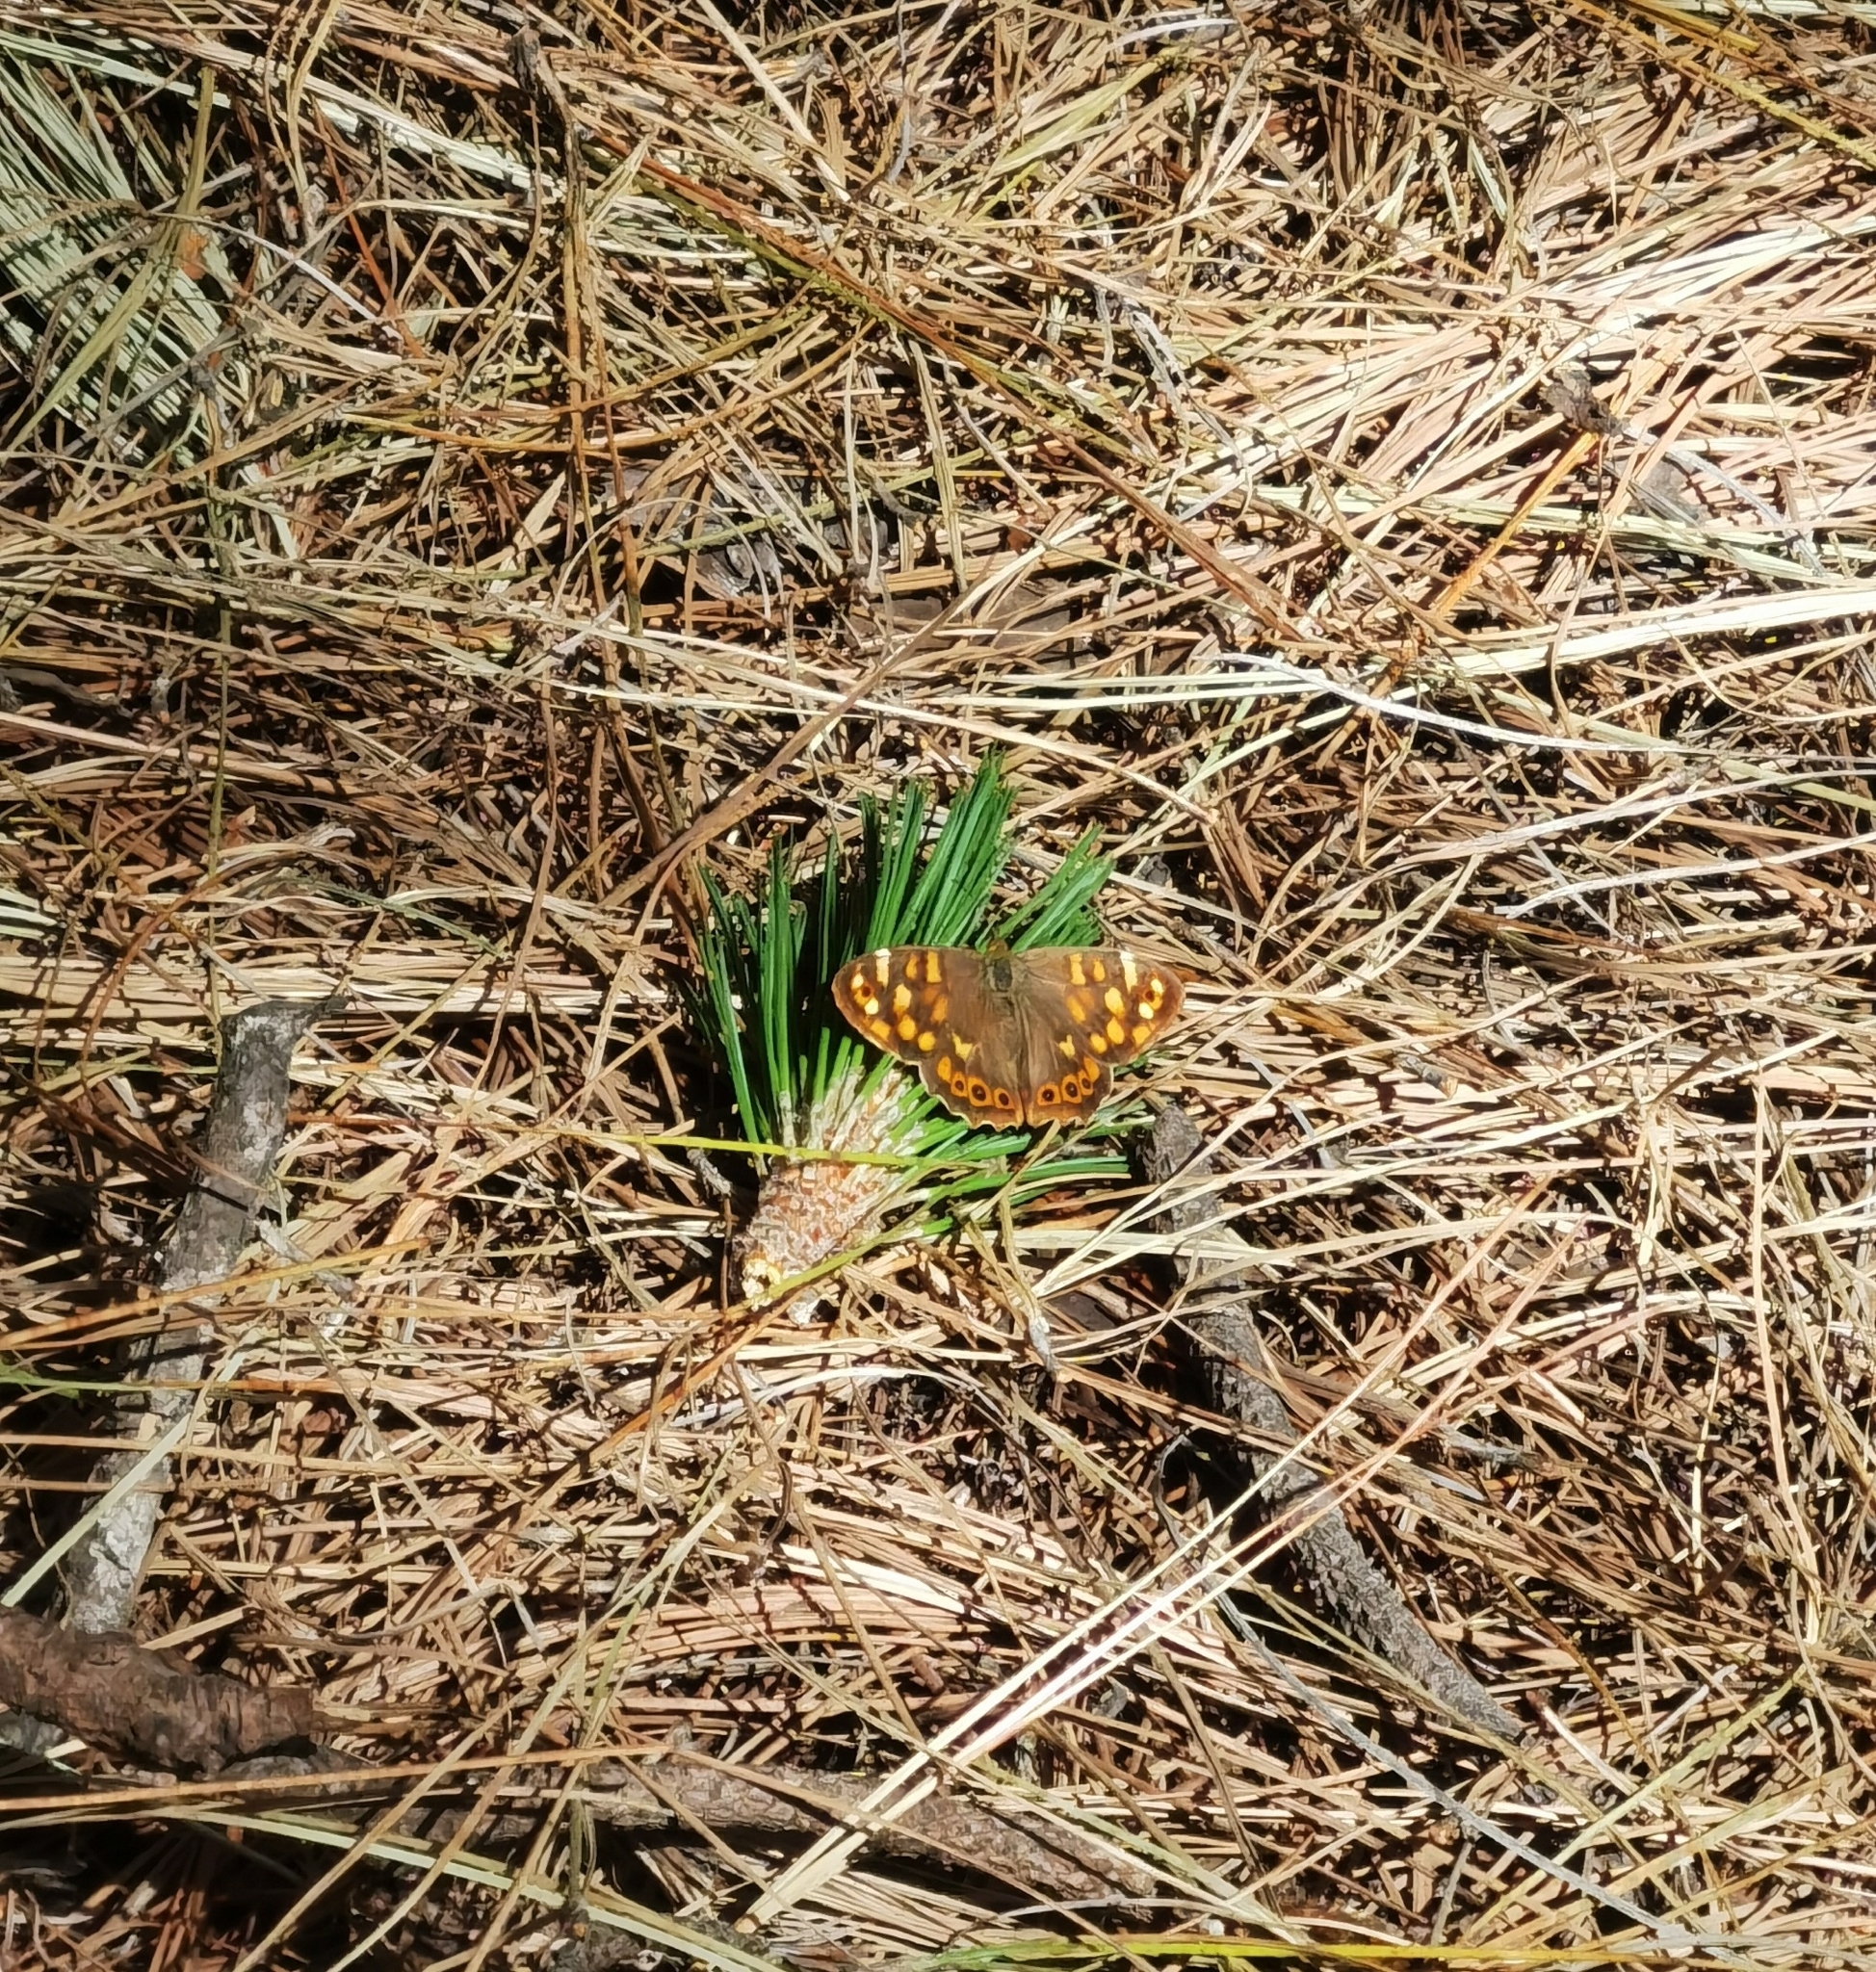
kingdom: Animalia
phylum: Arthropoda
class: Insecta
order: Lepidoptera
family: Nymphalidae
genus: Pararge
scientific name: Pararge aegeria
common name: Speckled wood
